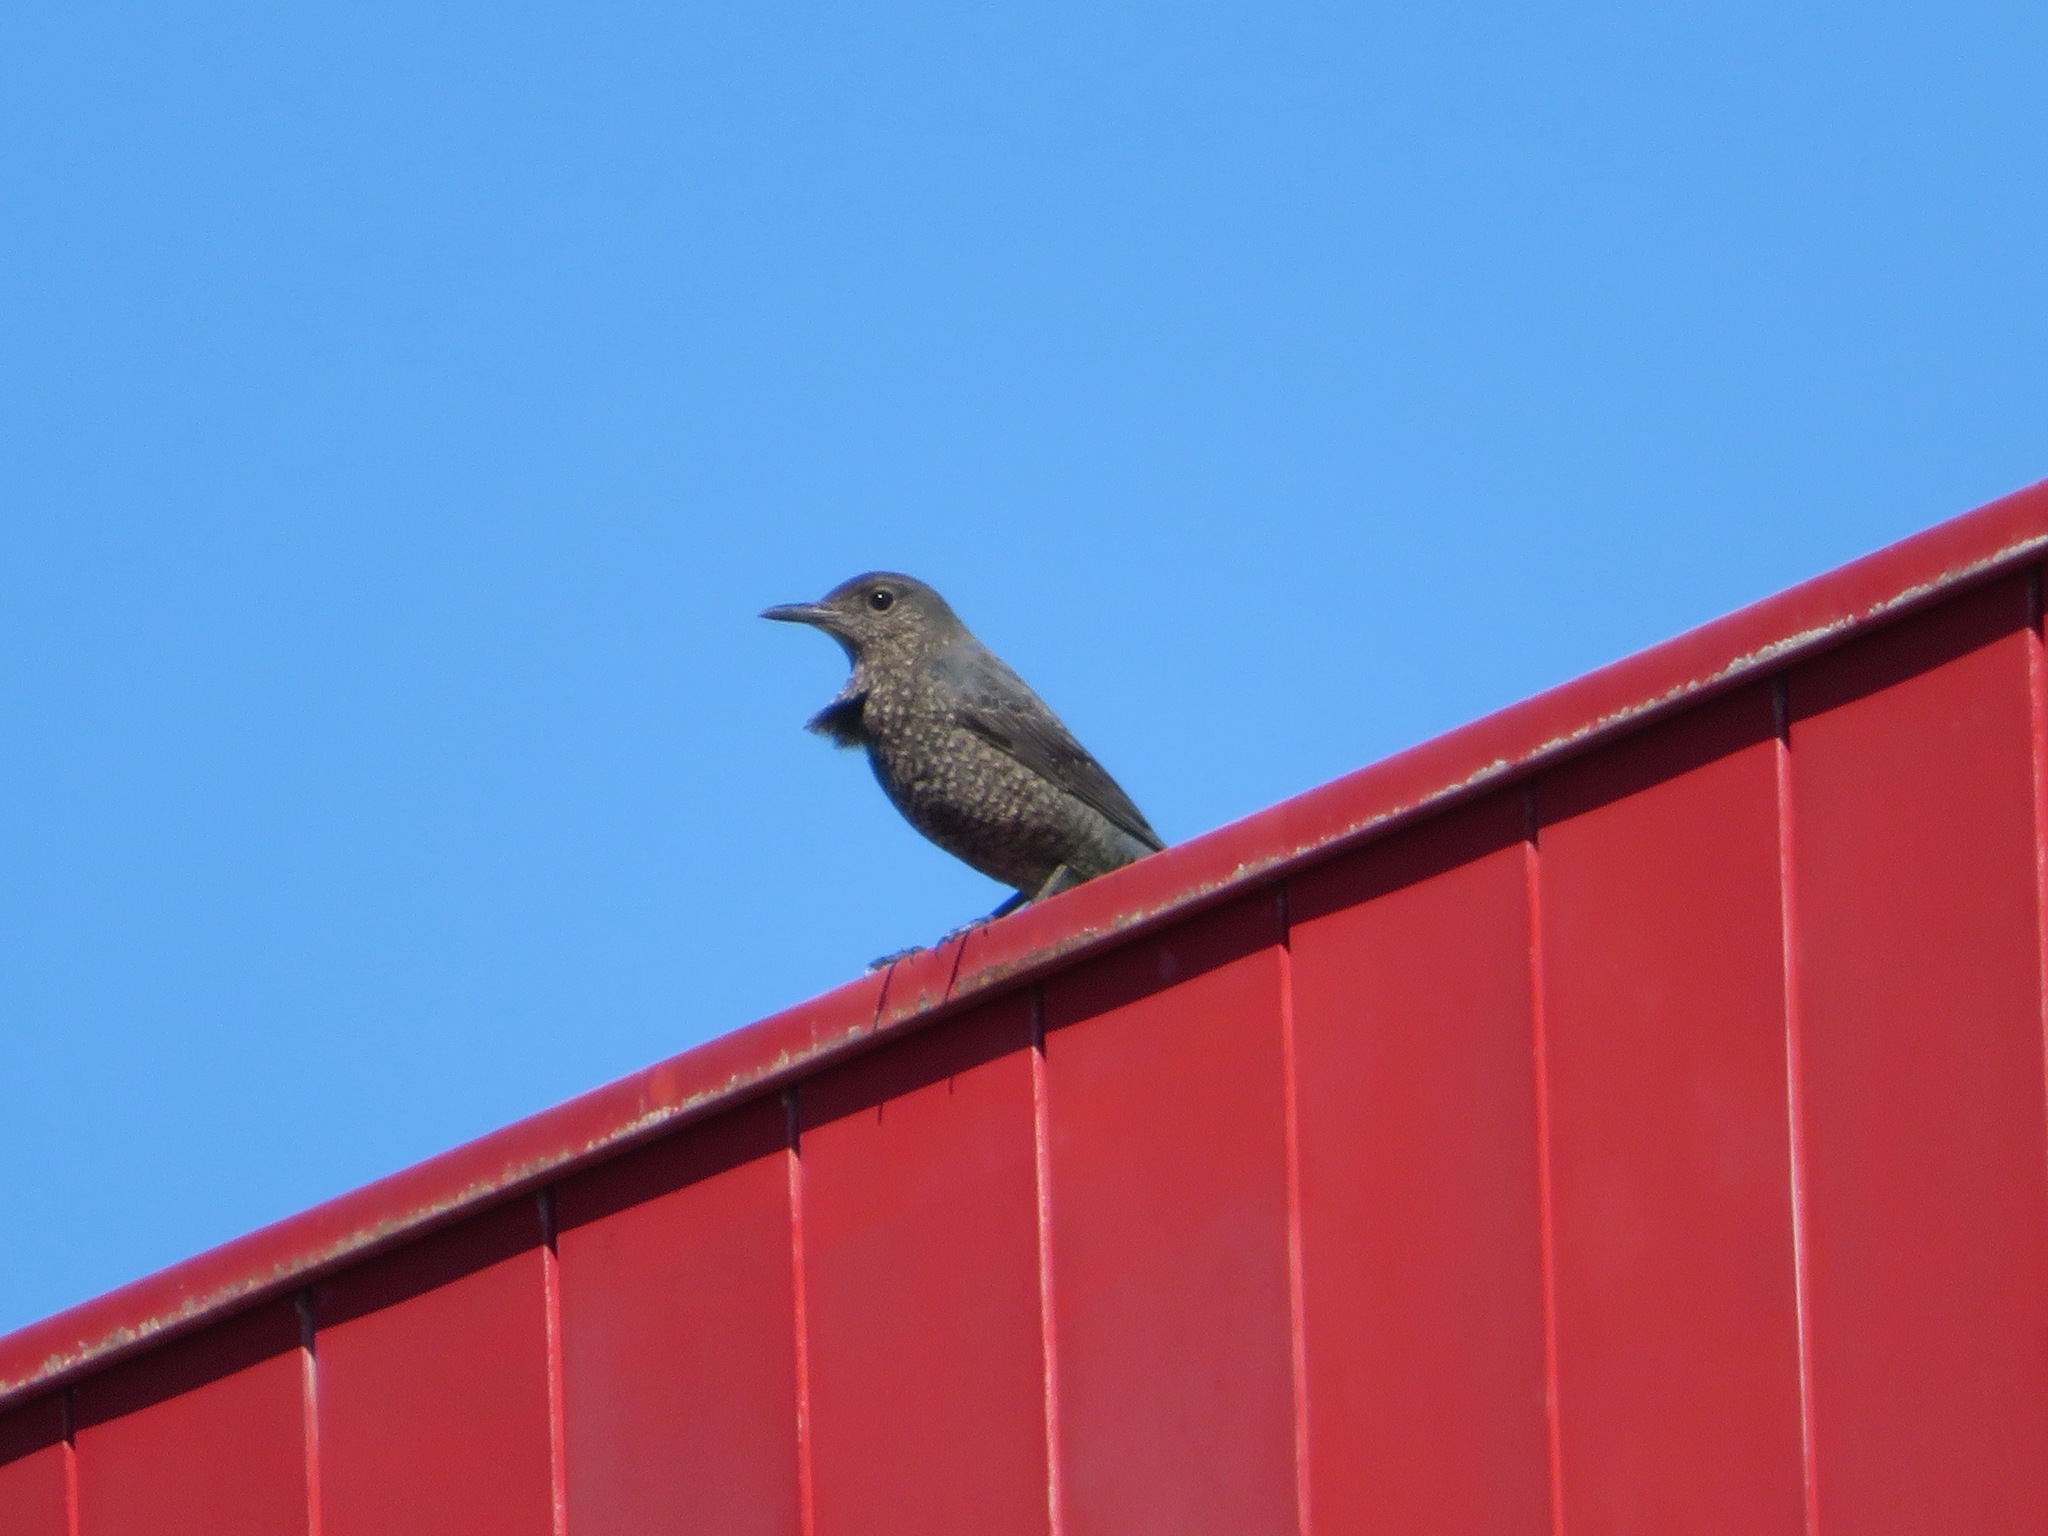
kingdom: Animalia
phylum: Chordata
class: Aves
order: Passeriformes
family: Muscicapidae
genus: Monticola
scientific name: Monticola solitarius
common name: Blue rock thrush
